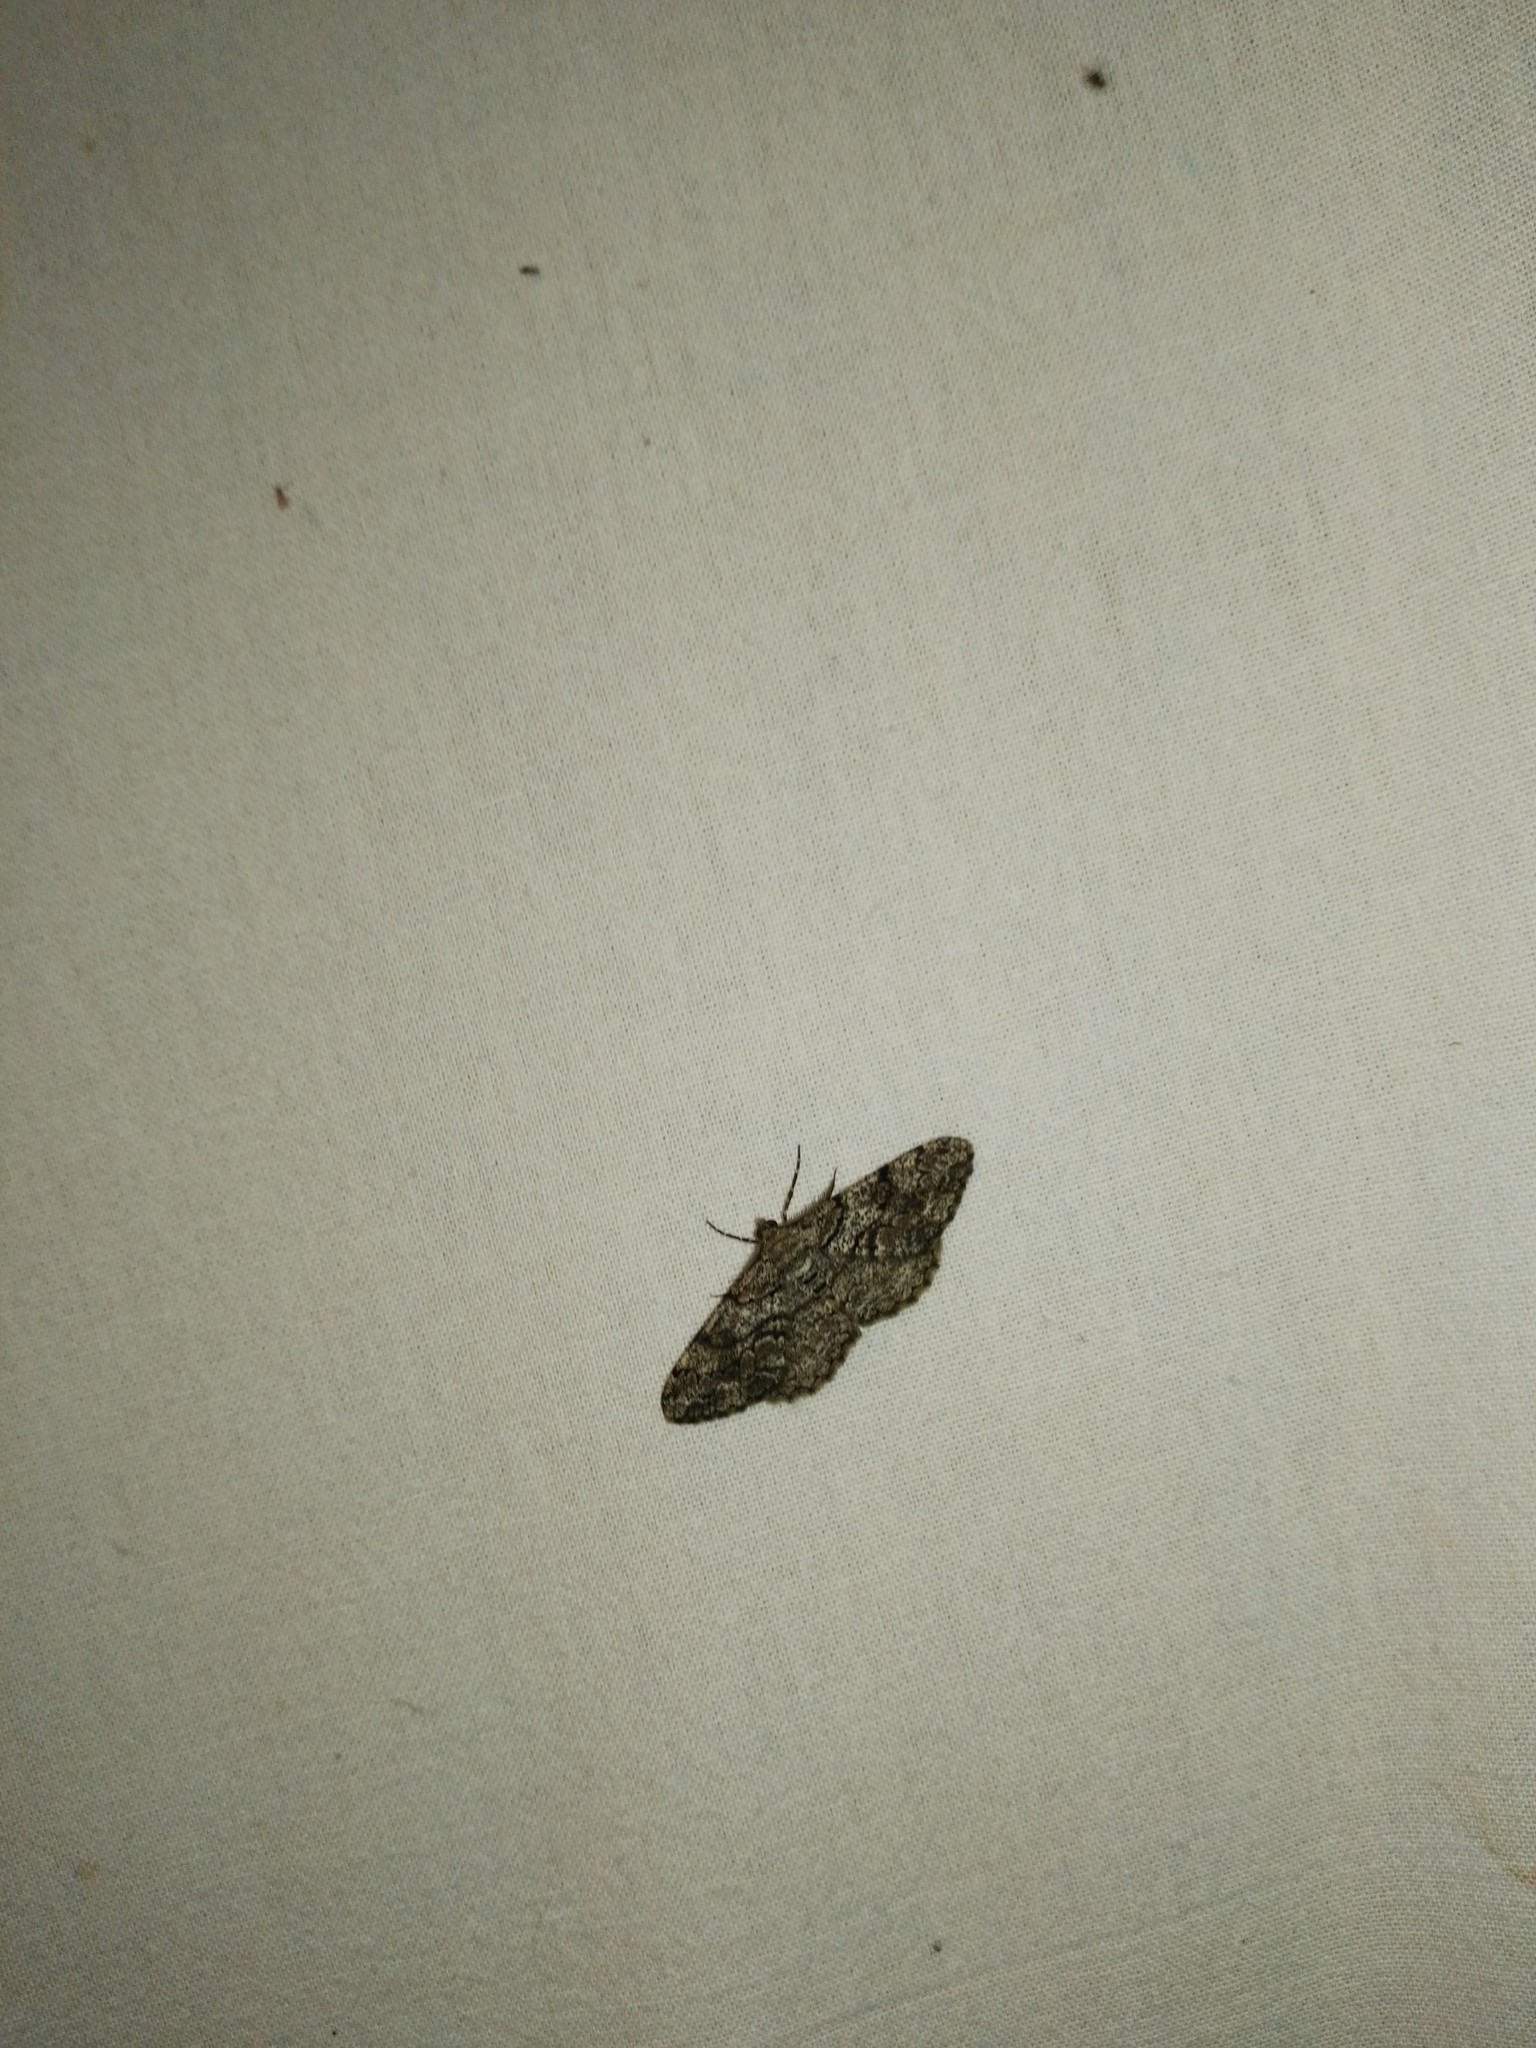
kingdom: Animalia
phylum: Arthropoda
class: Insecta
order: Lepidoptera
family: Geometridae
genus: Peribatodes
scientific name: Peribatodes secundaria
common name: Feathered beauty
